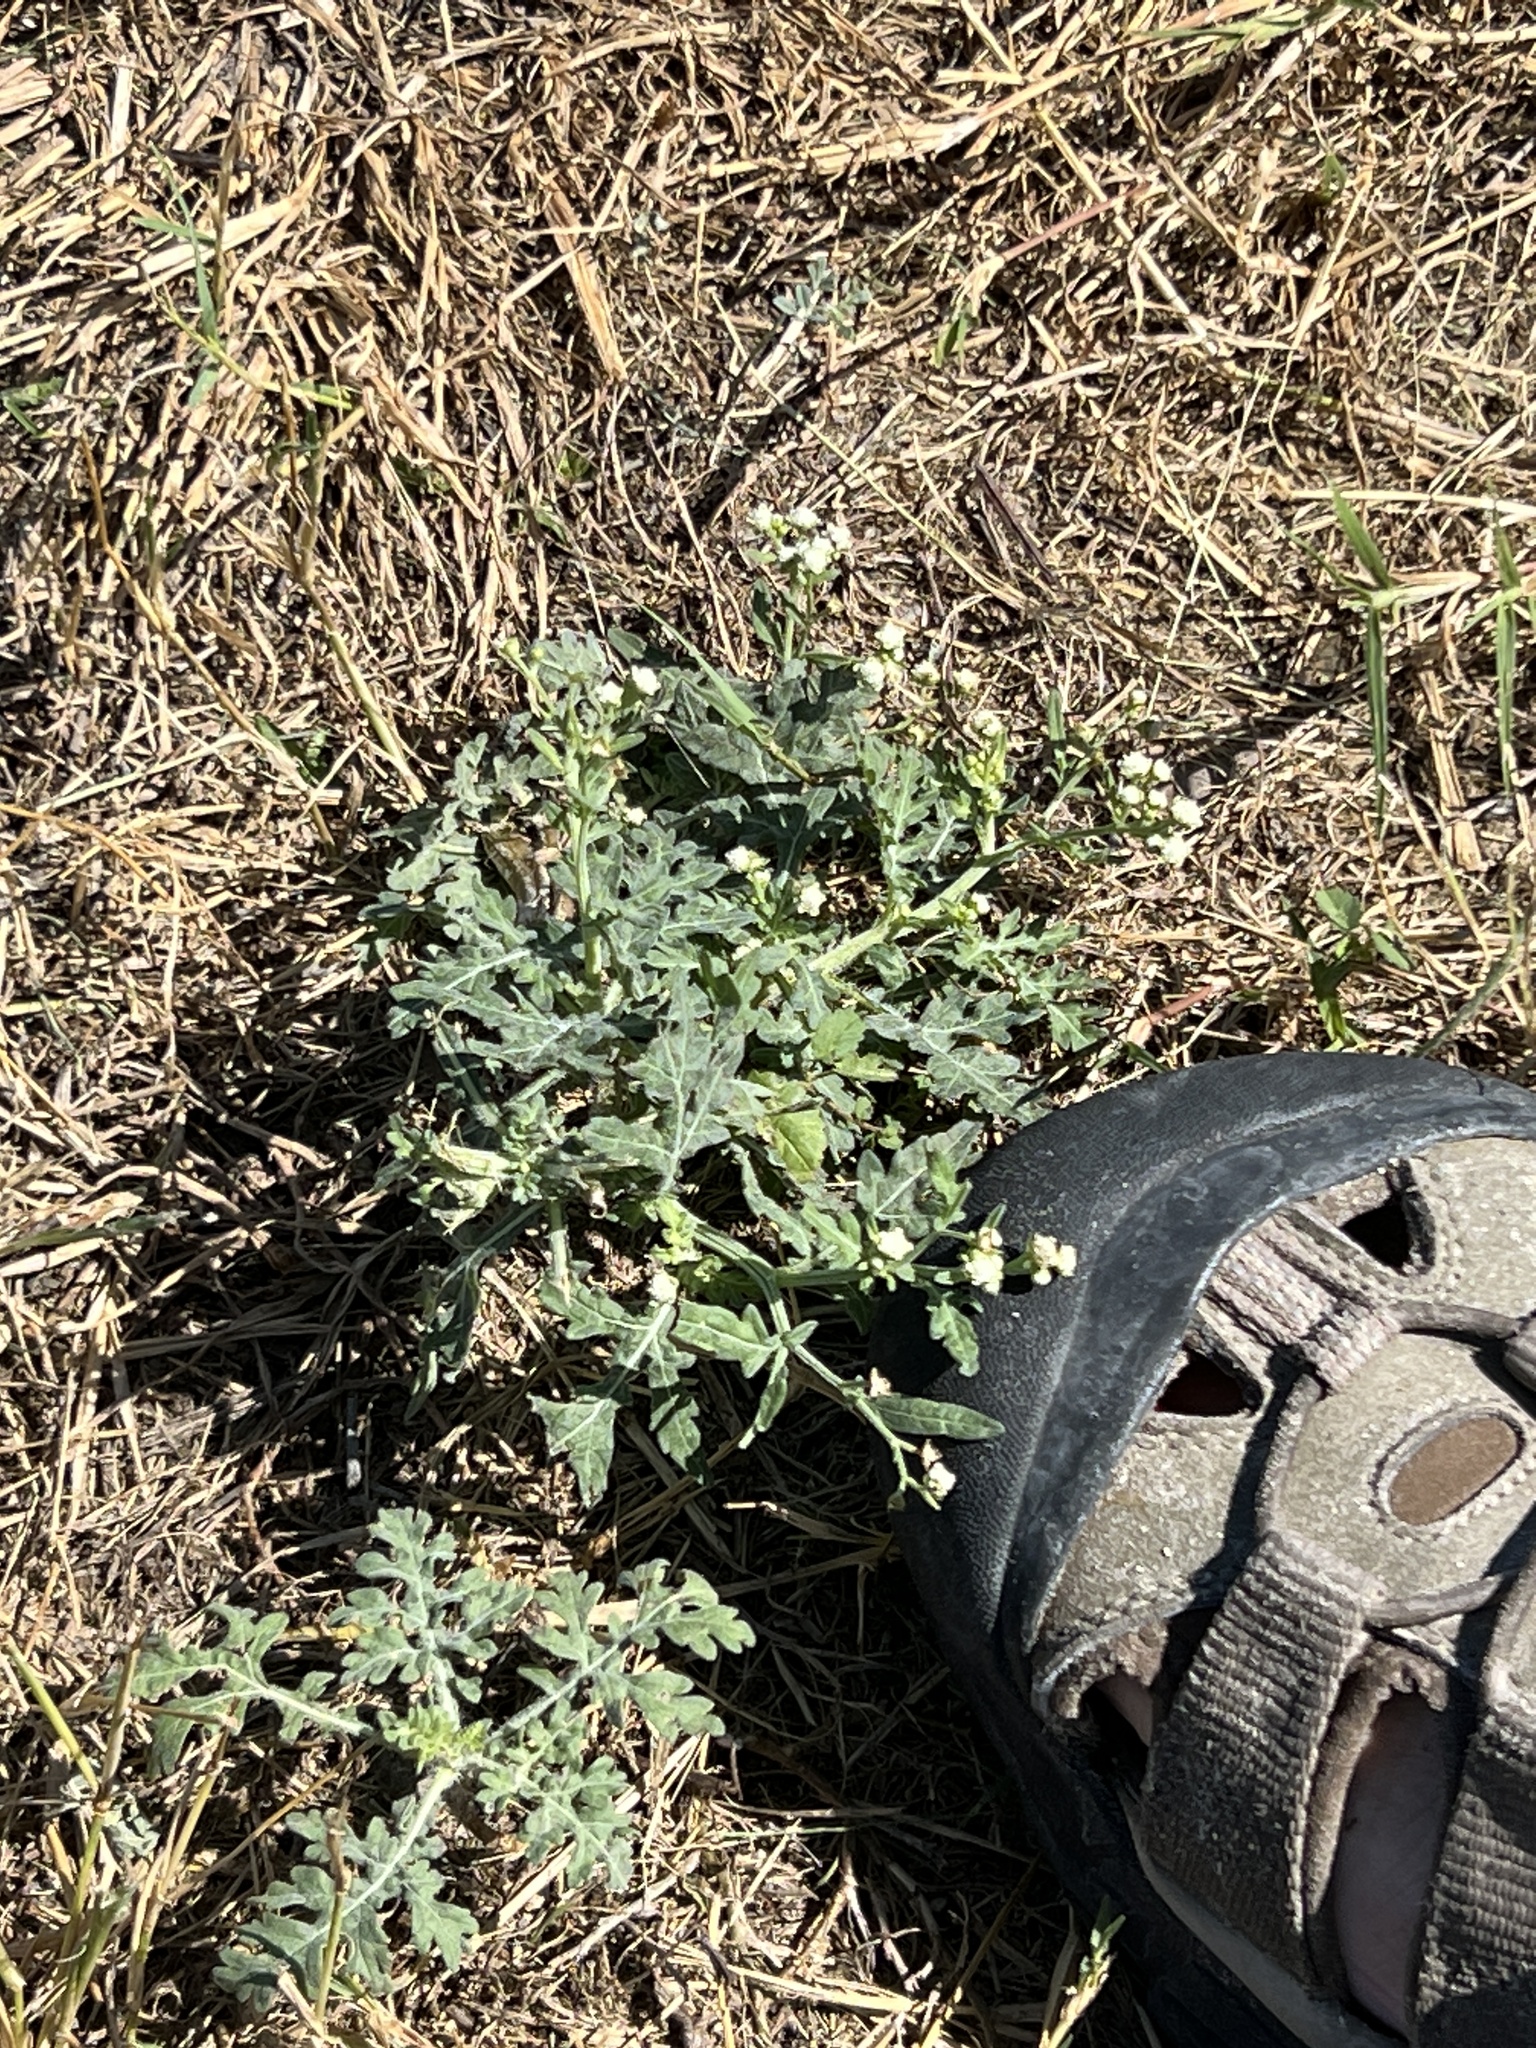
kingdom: Plantae
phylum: Tracheophyta
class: Magnoliopsida
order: Asterales
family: Asteraceae
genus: Parthenium
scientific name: Parthenium hysterophorus
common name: Santa maria feverfew
